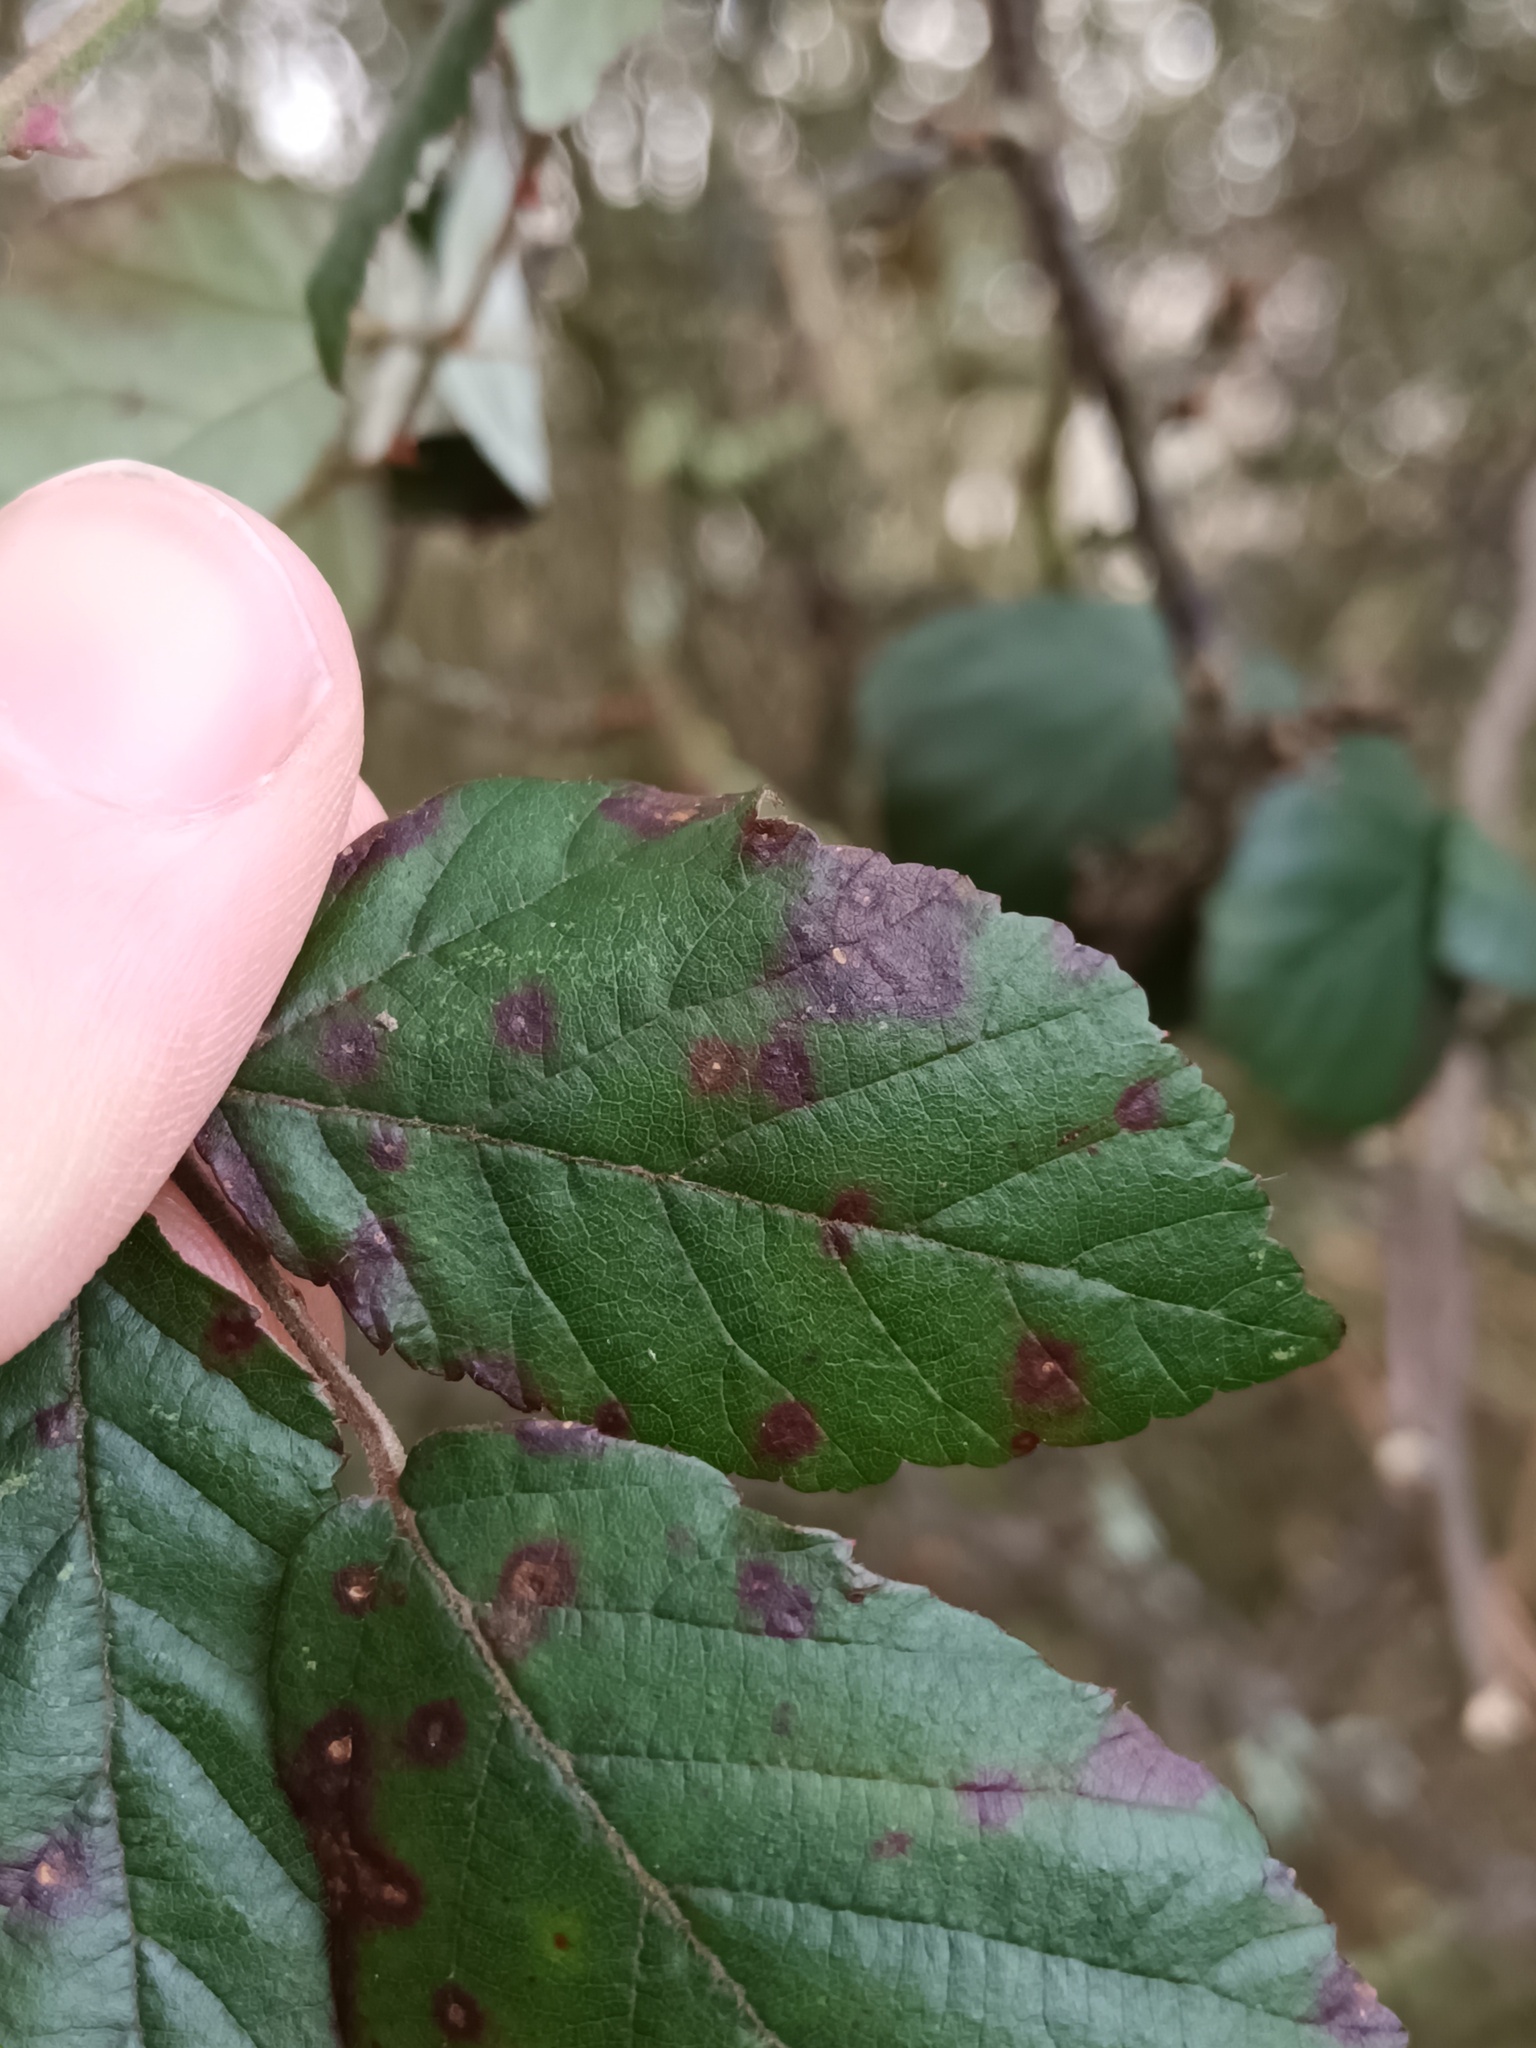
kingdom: Fungi
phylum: Basidiomycota
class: Pucciniomycetes
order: Pucciniales
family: Phragmidiaceae
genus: Phragmidium
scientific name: Phragmidium violaceum
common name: Violet bramble rust
